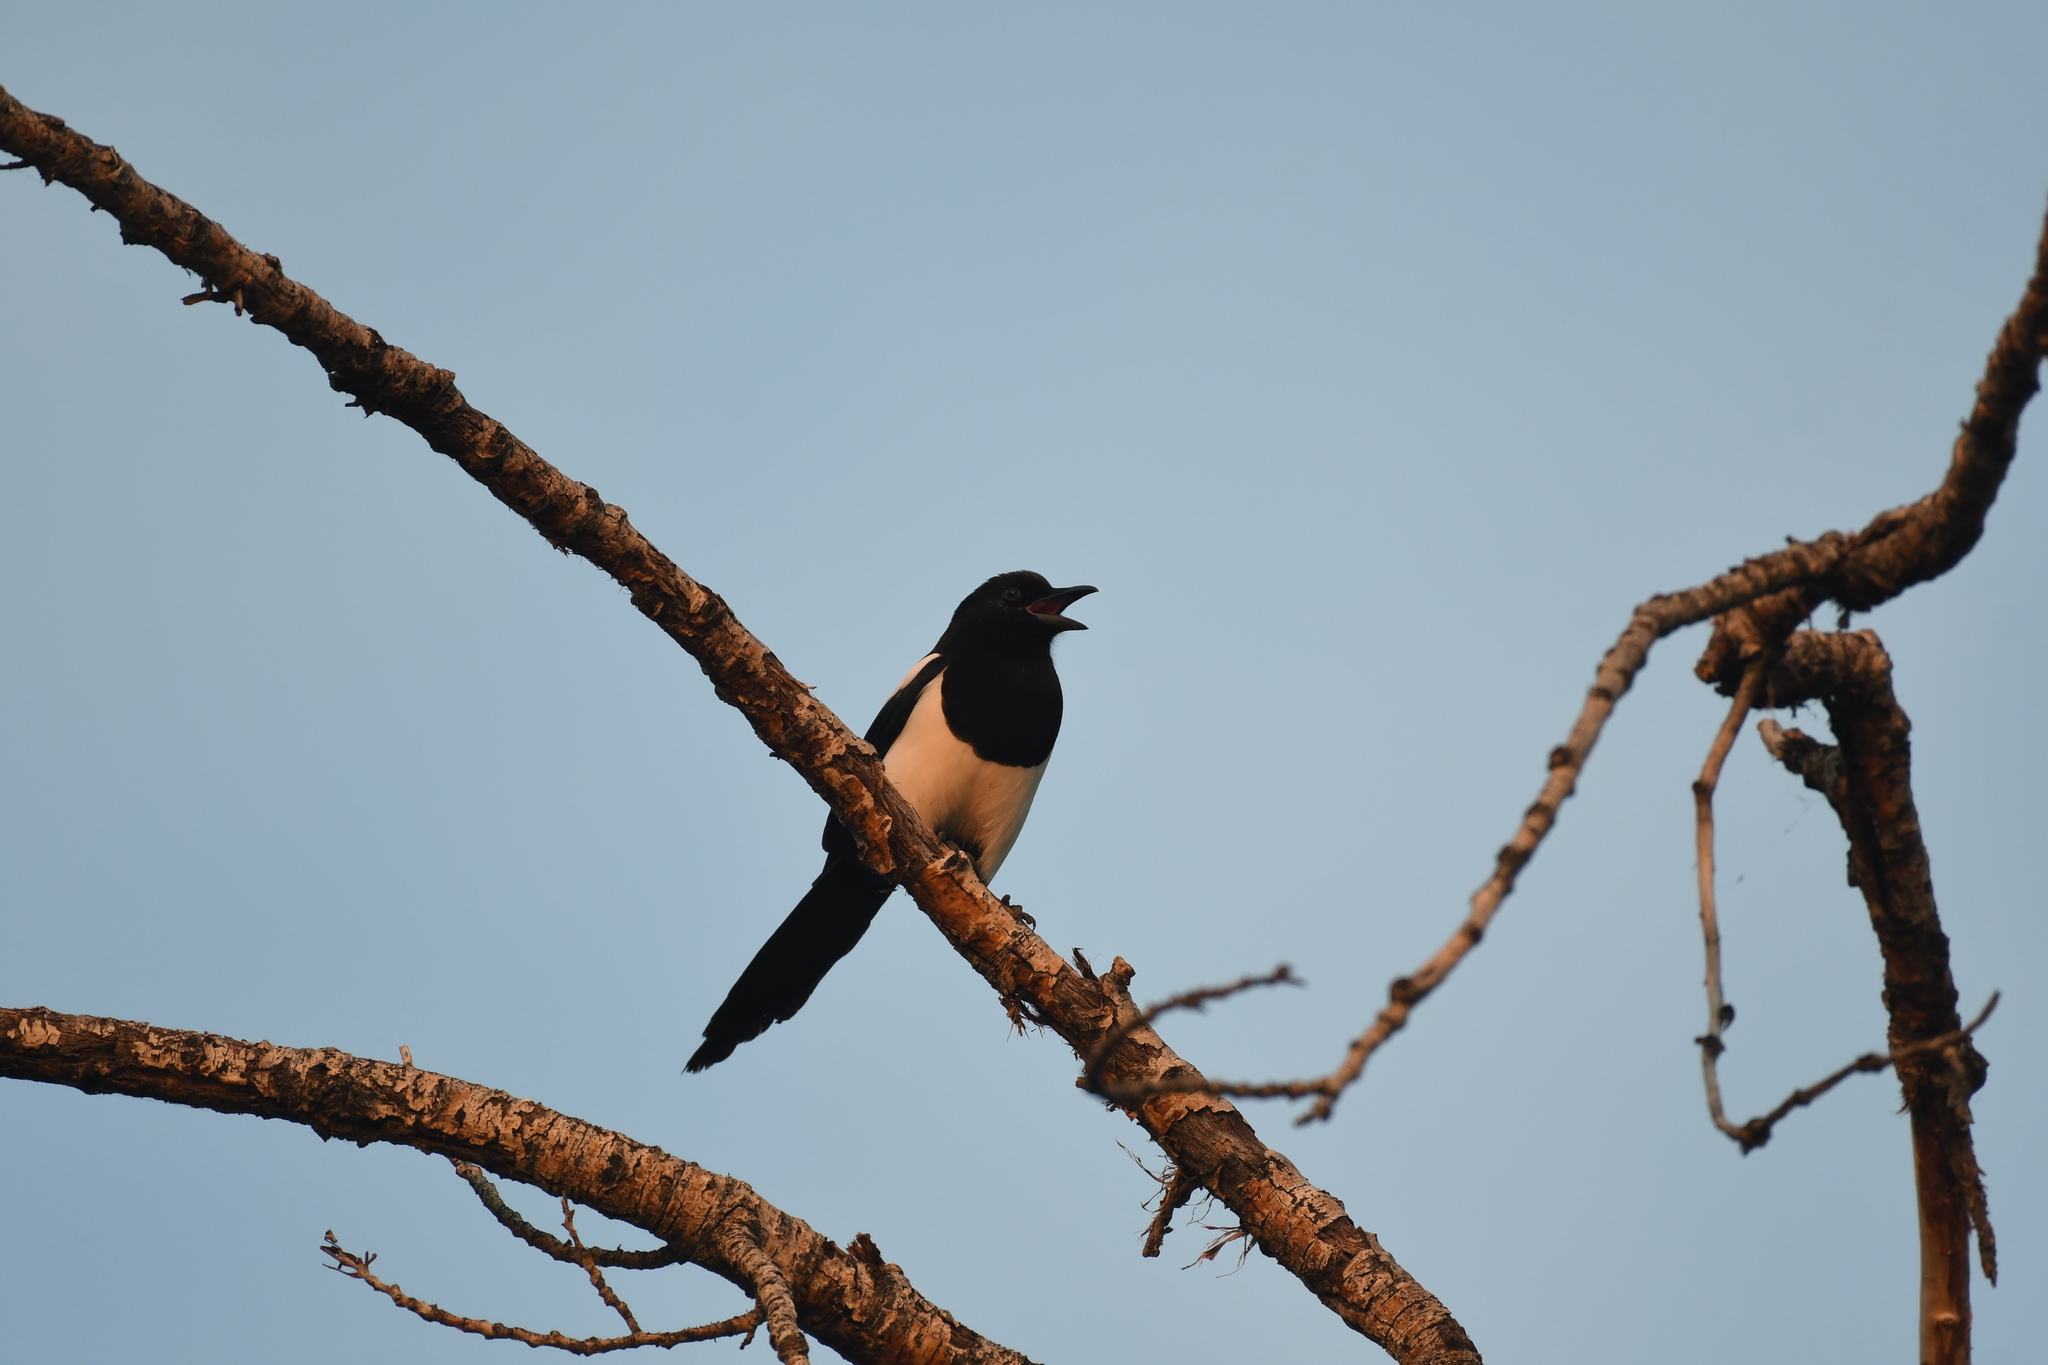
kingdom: Animalia
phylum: Chordata
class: Aves
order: Passeriformes
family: Corvidae
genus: Pica
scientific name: Pica hudsonia
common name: Black-billed magpie
